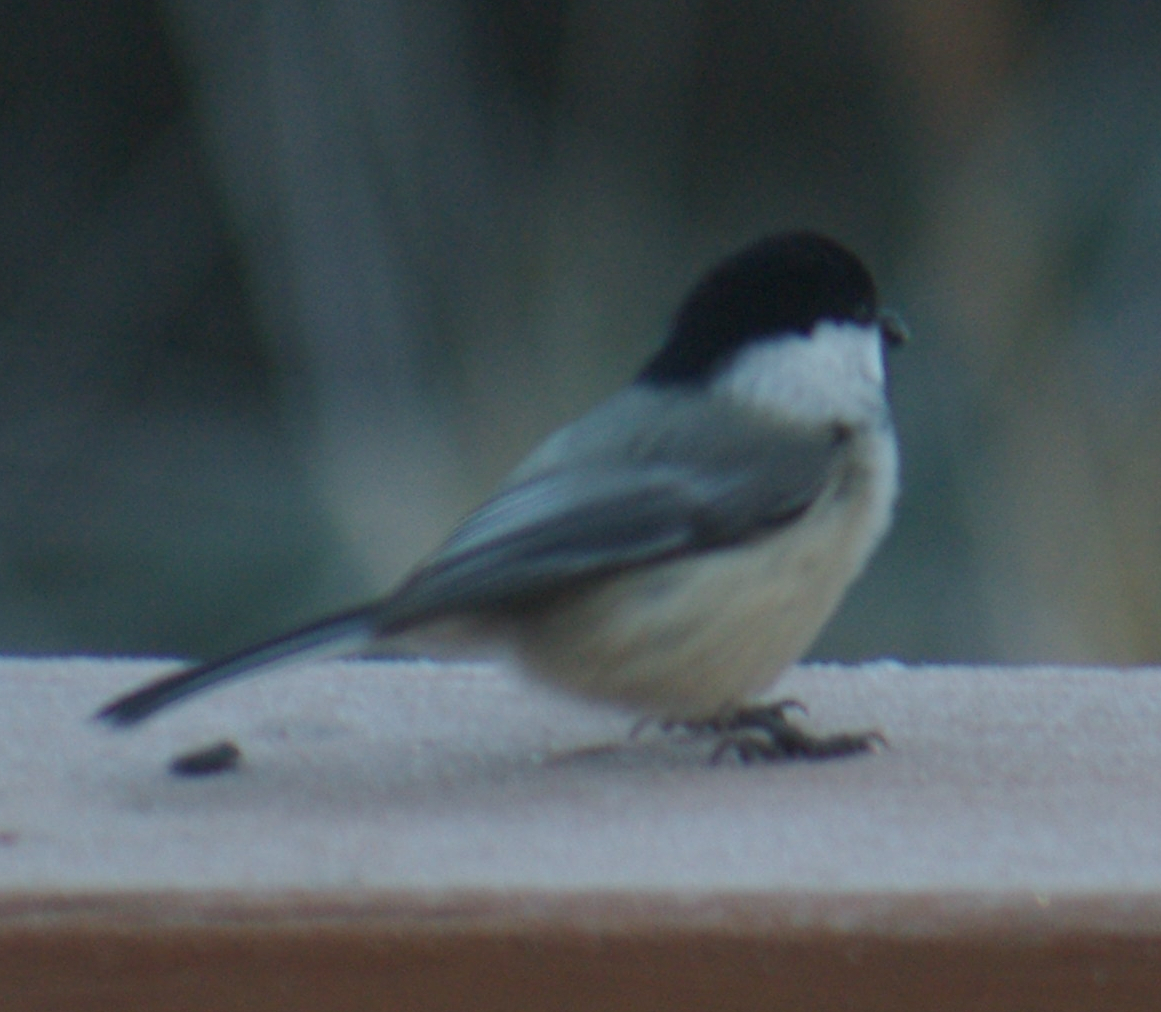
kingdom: Animalia
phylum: Chordata
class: Aves
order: Passeriformes
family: Paridae
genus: Poecile
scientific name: Poecile atricapillus
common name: Black-capped chickadee
